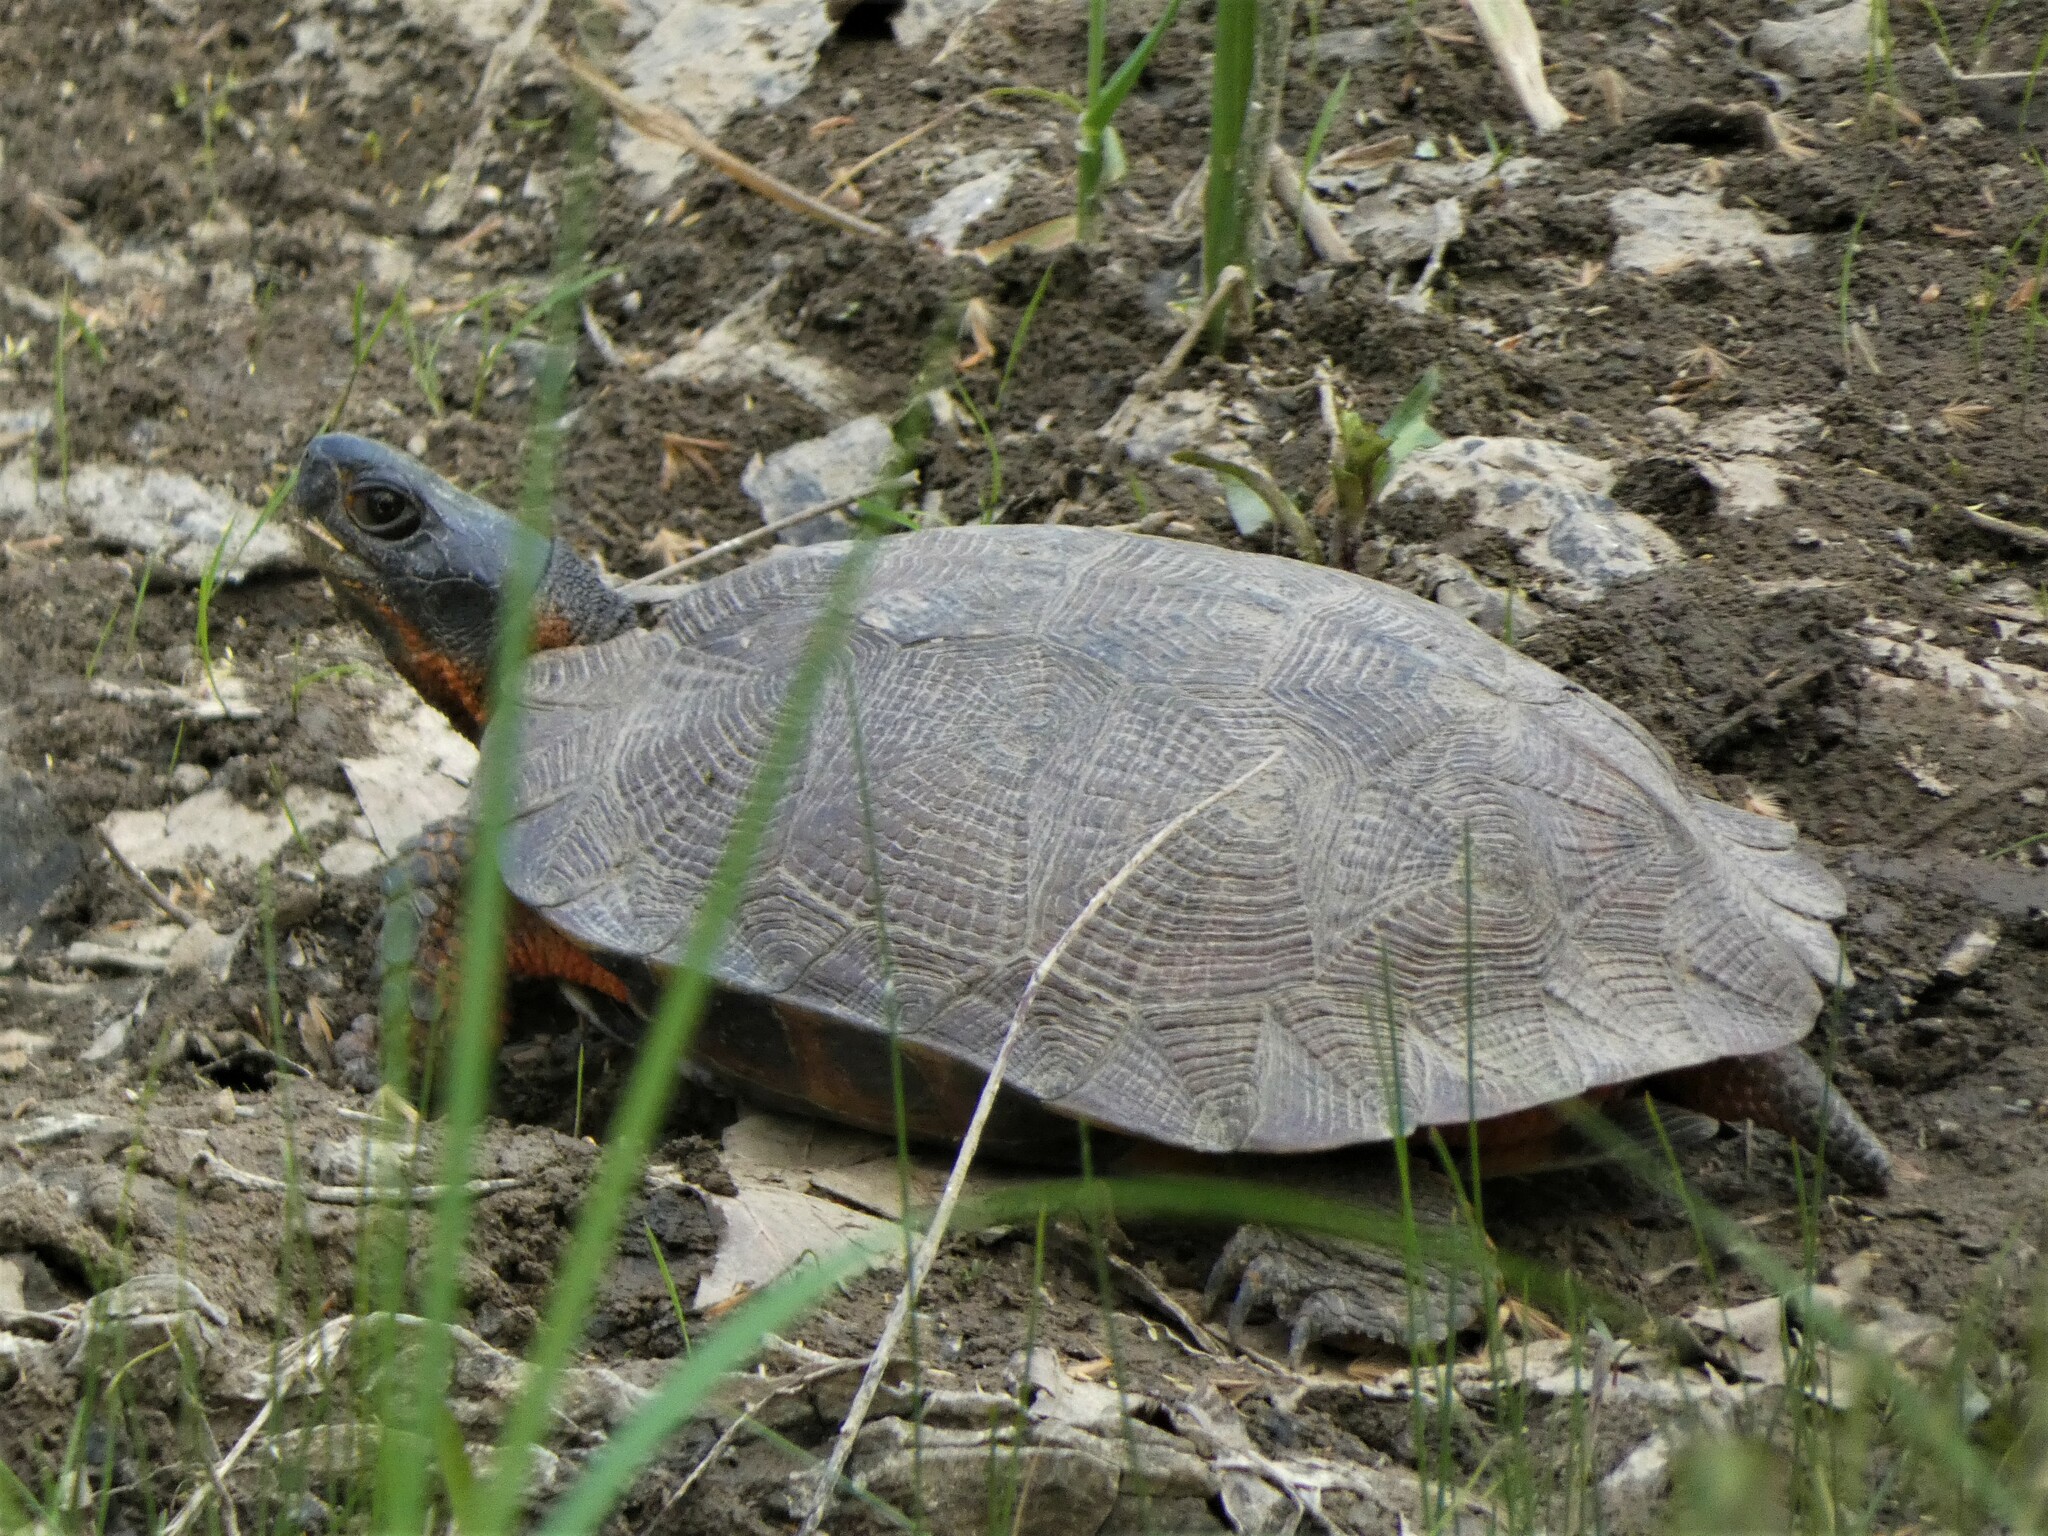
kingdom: Animalia
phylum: Chordata
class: Testudines
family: Emydidae
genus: Glyptemys
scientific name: Glyptemys insculpta
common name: Wood turtle
